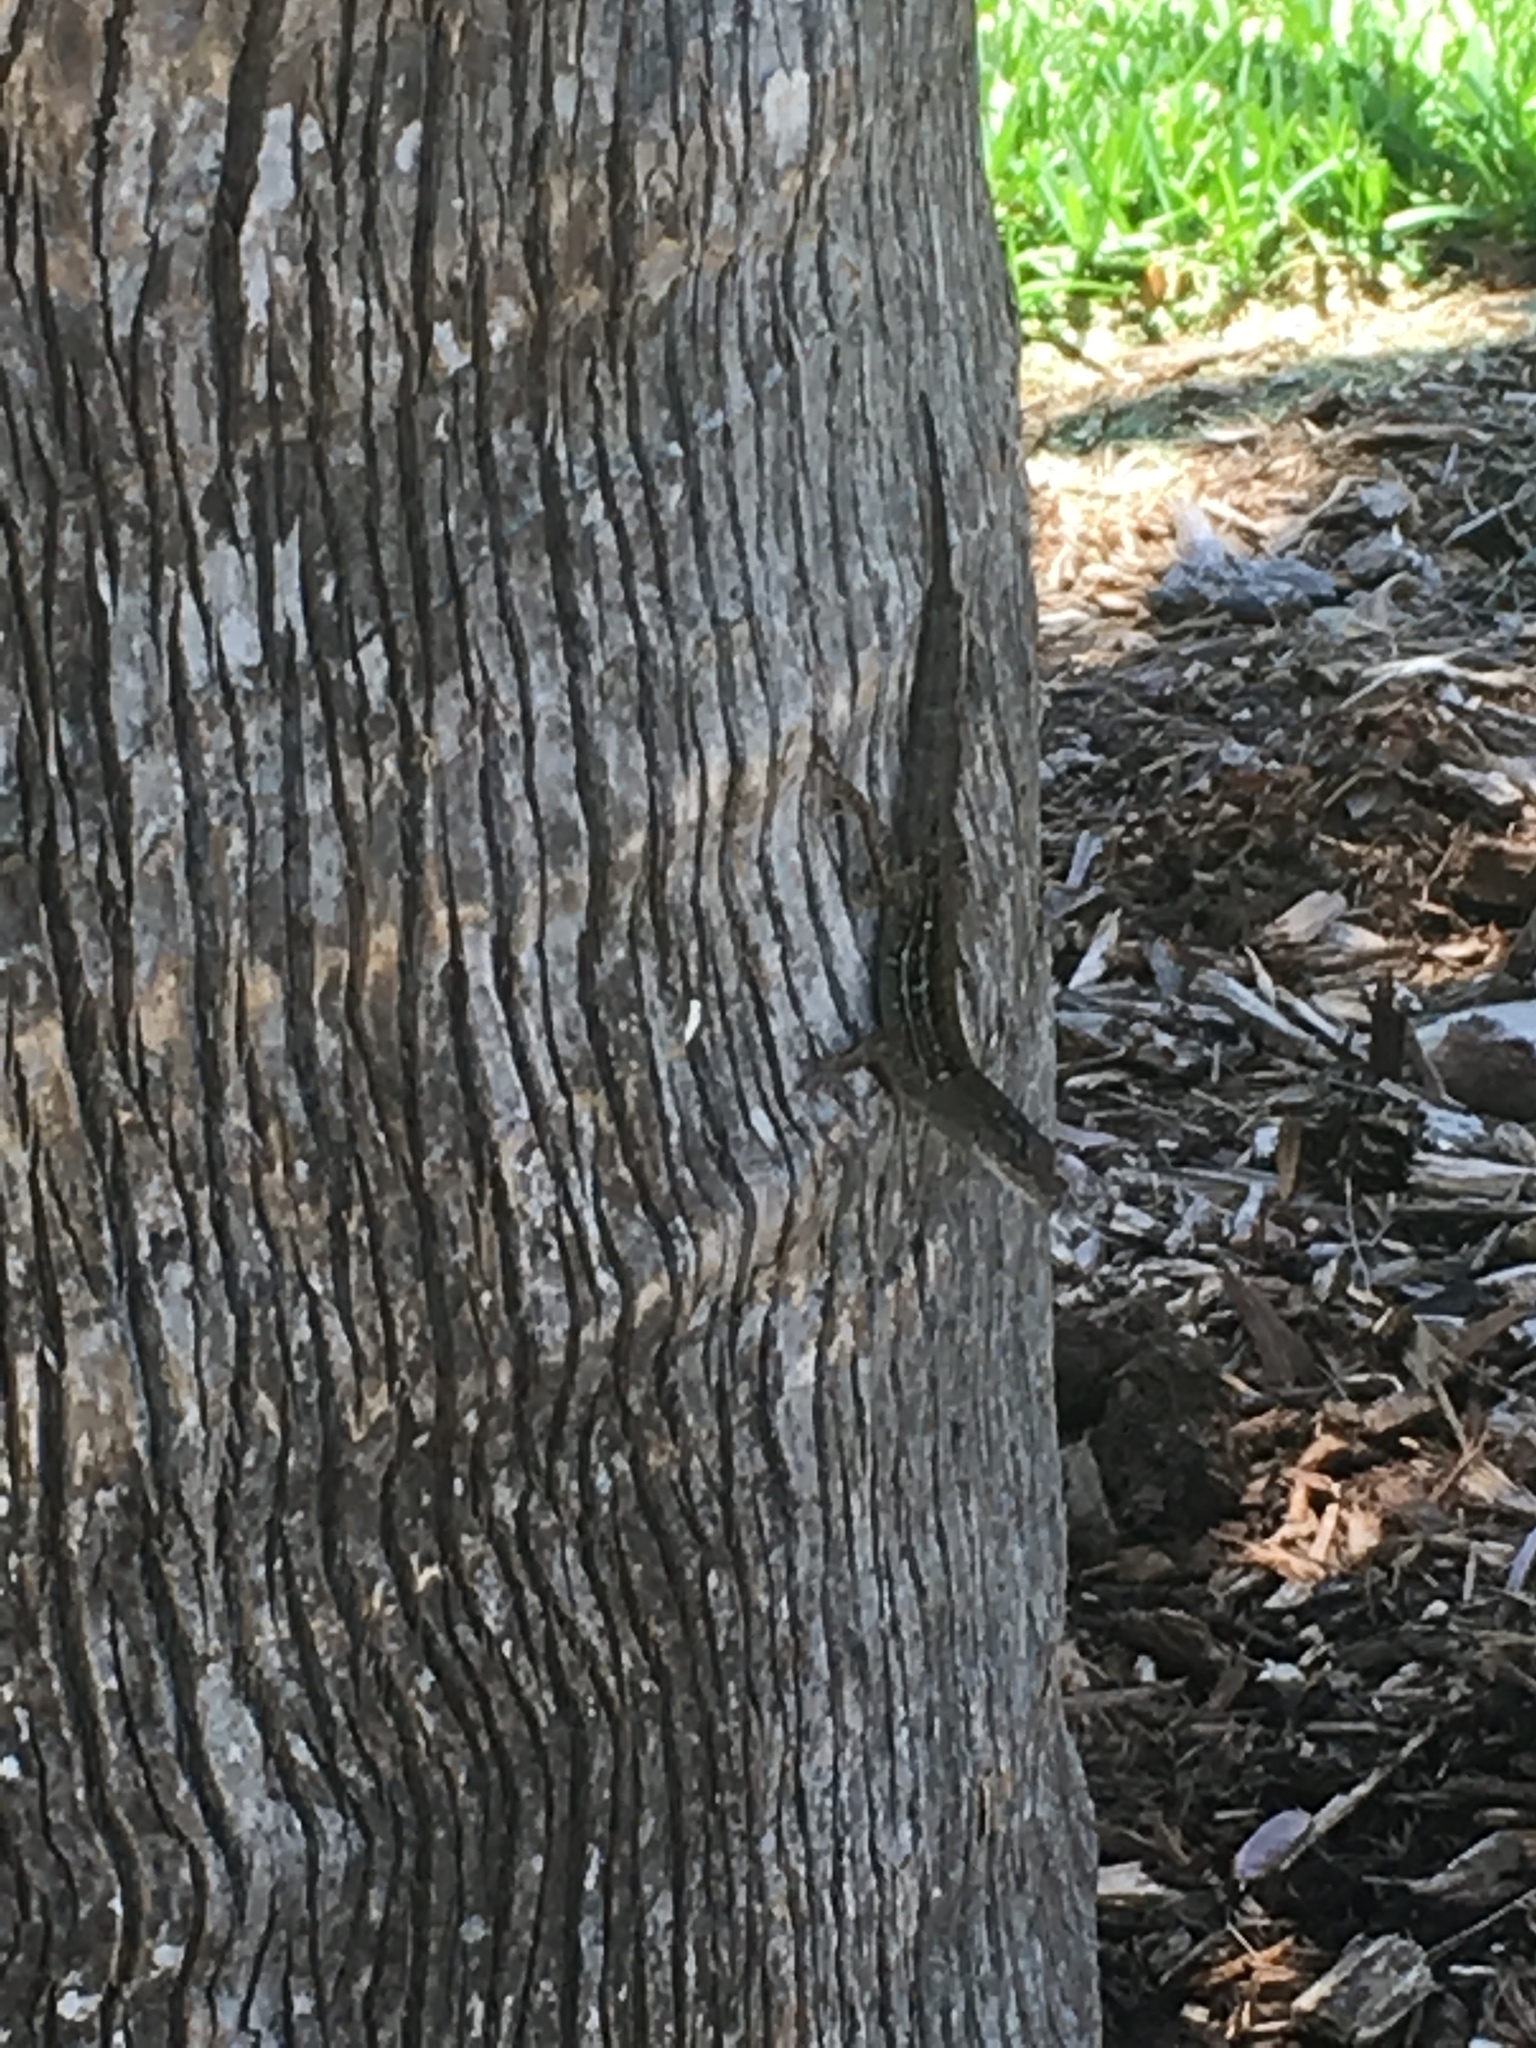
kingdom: Animalia
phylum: Chordata
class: Squamata
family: Dactyloidae
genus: Anolis
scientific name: Anolis sagrei
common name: Brown anole
